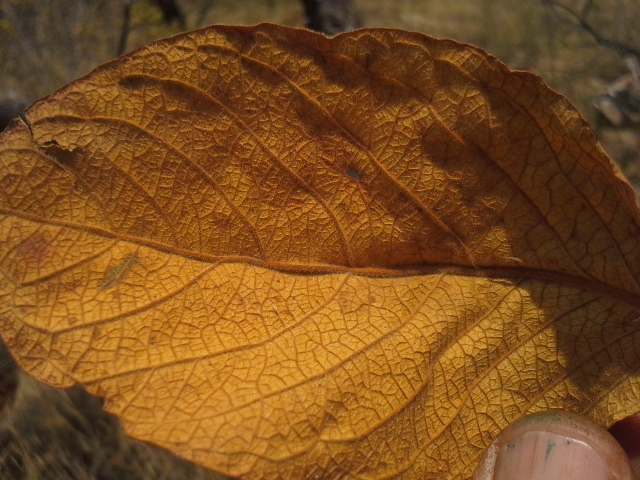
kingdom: Plantae
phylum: Tracheophyta
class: Magnoliopsida
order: Myrtales
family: Combretaceae
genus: Combretum
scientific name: Combretum molle
